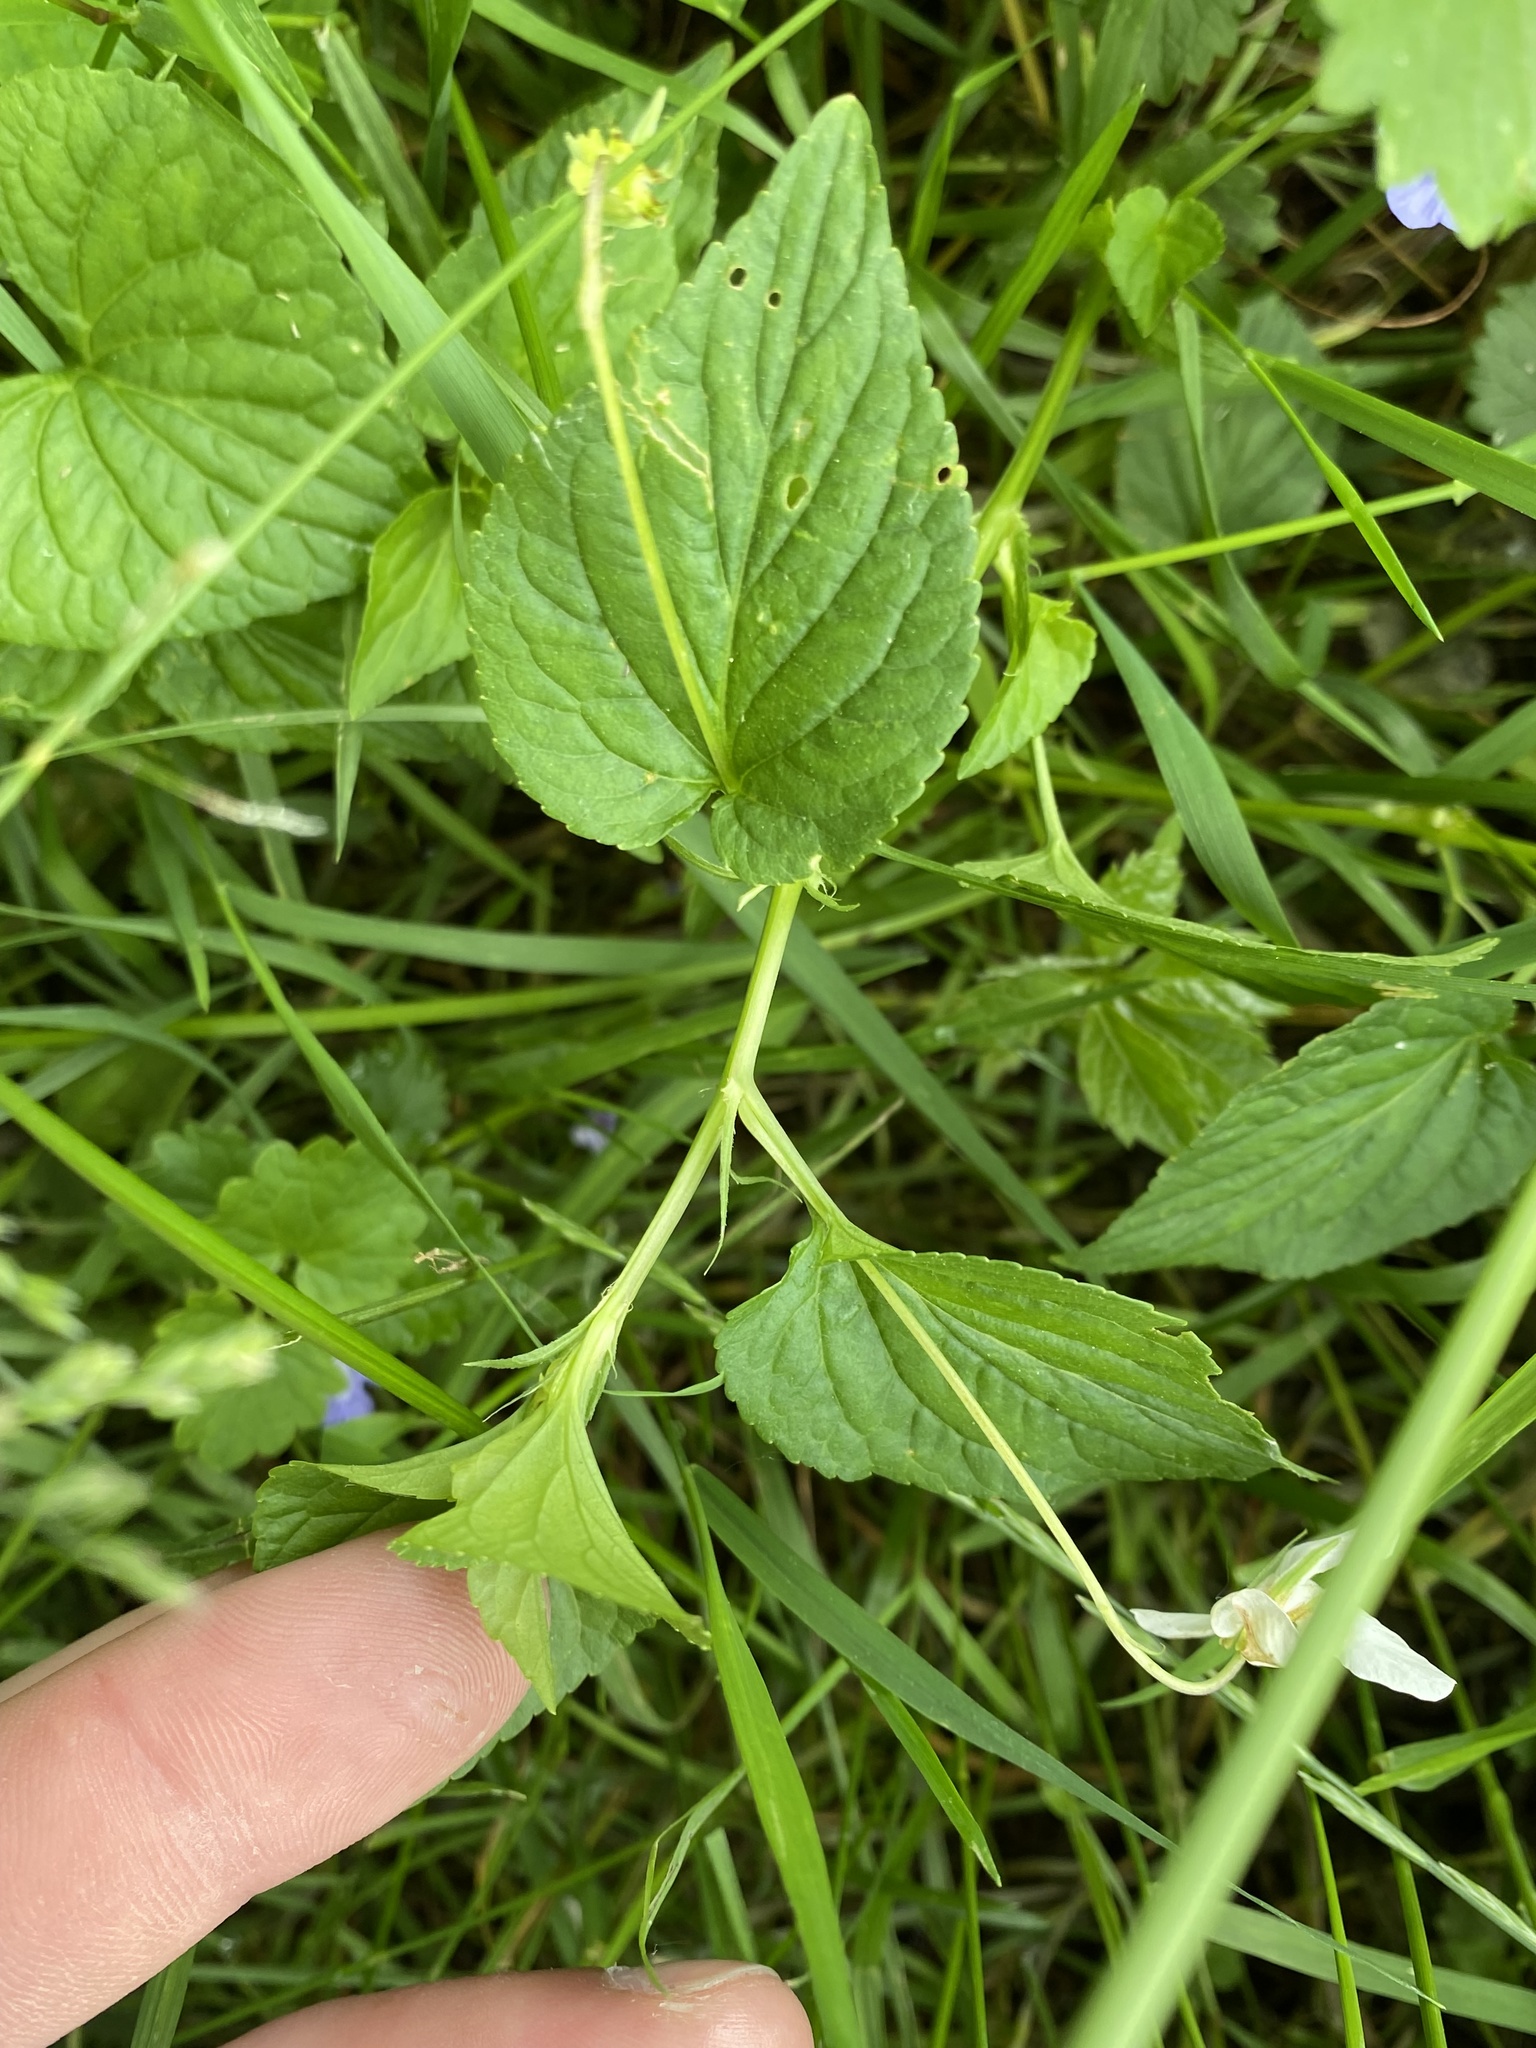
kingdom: Plantae
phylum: Tracheophyta
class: Magnoliopsida
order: Malpighiales
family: Violaceae
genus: Viola
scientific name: Viola striata
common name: Cream violet
